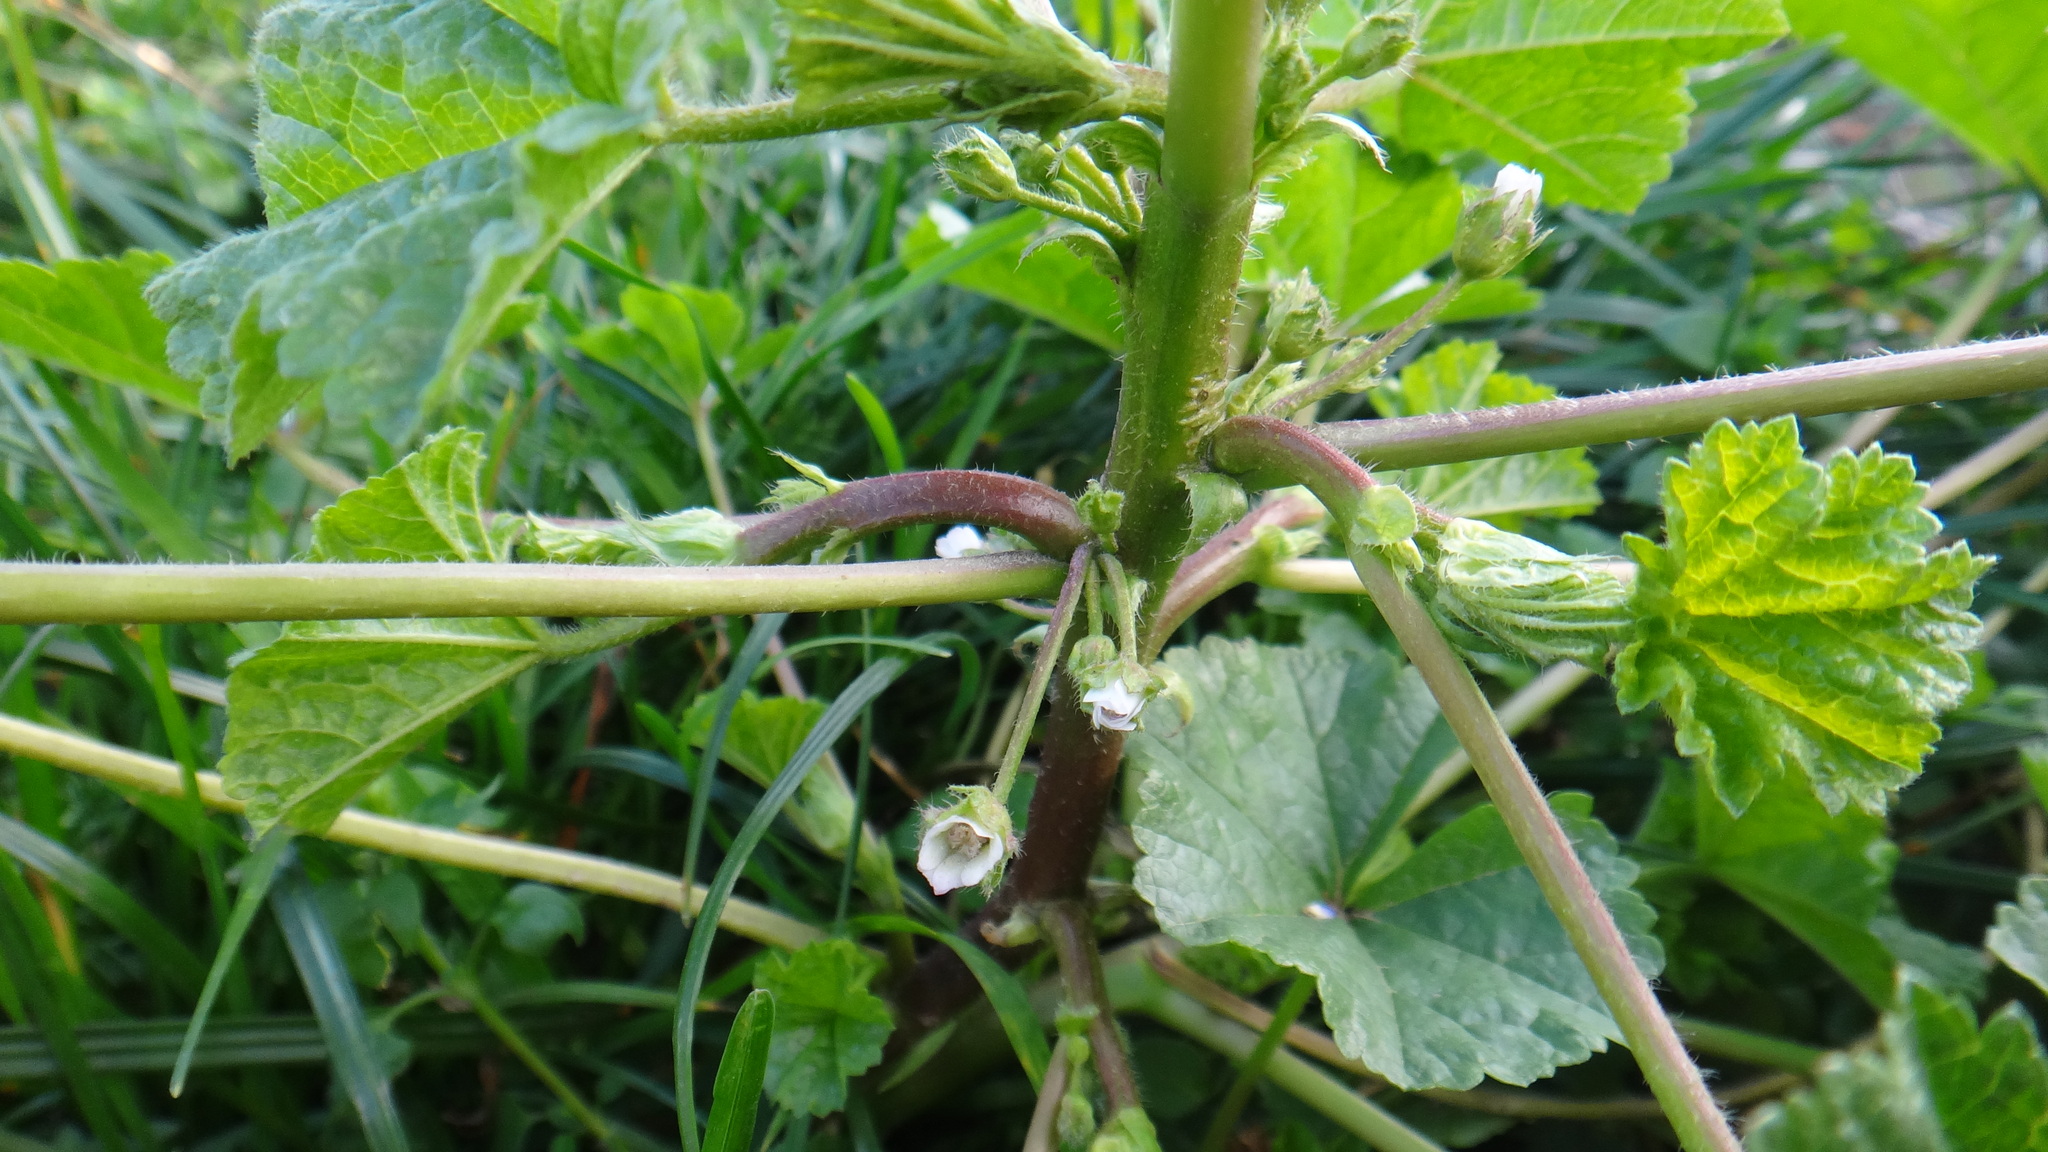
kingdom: Plantae
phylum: Tracheophyta
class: Magnoliopsida
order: Malvales
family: Malvaceae
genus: Malva
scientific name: Malva pusilla
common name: Small mallow
